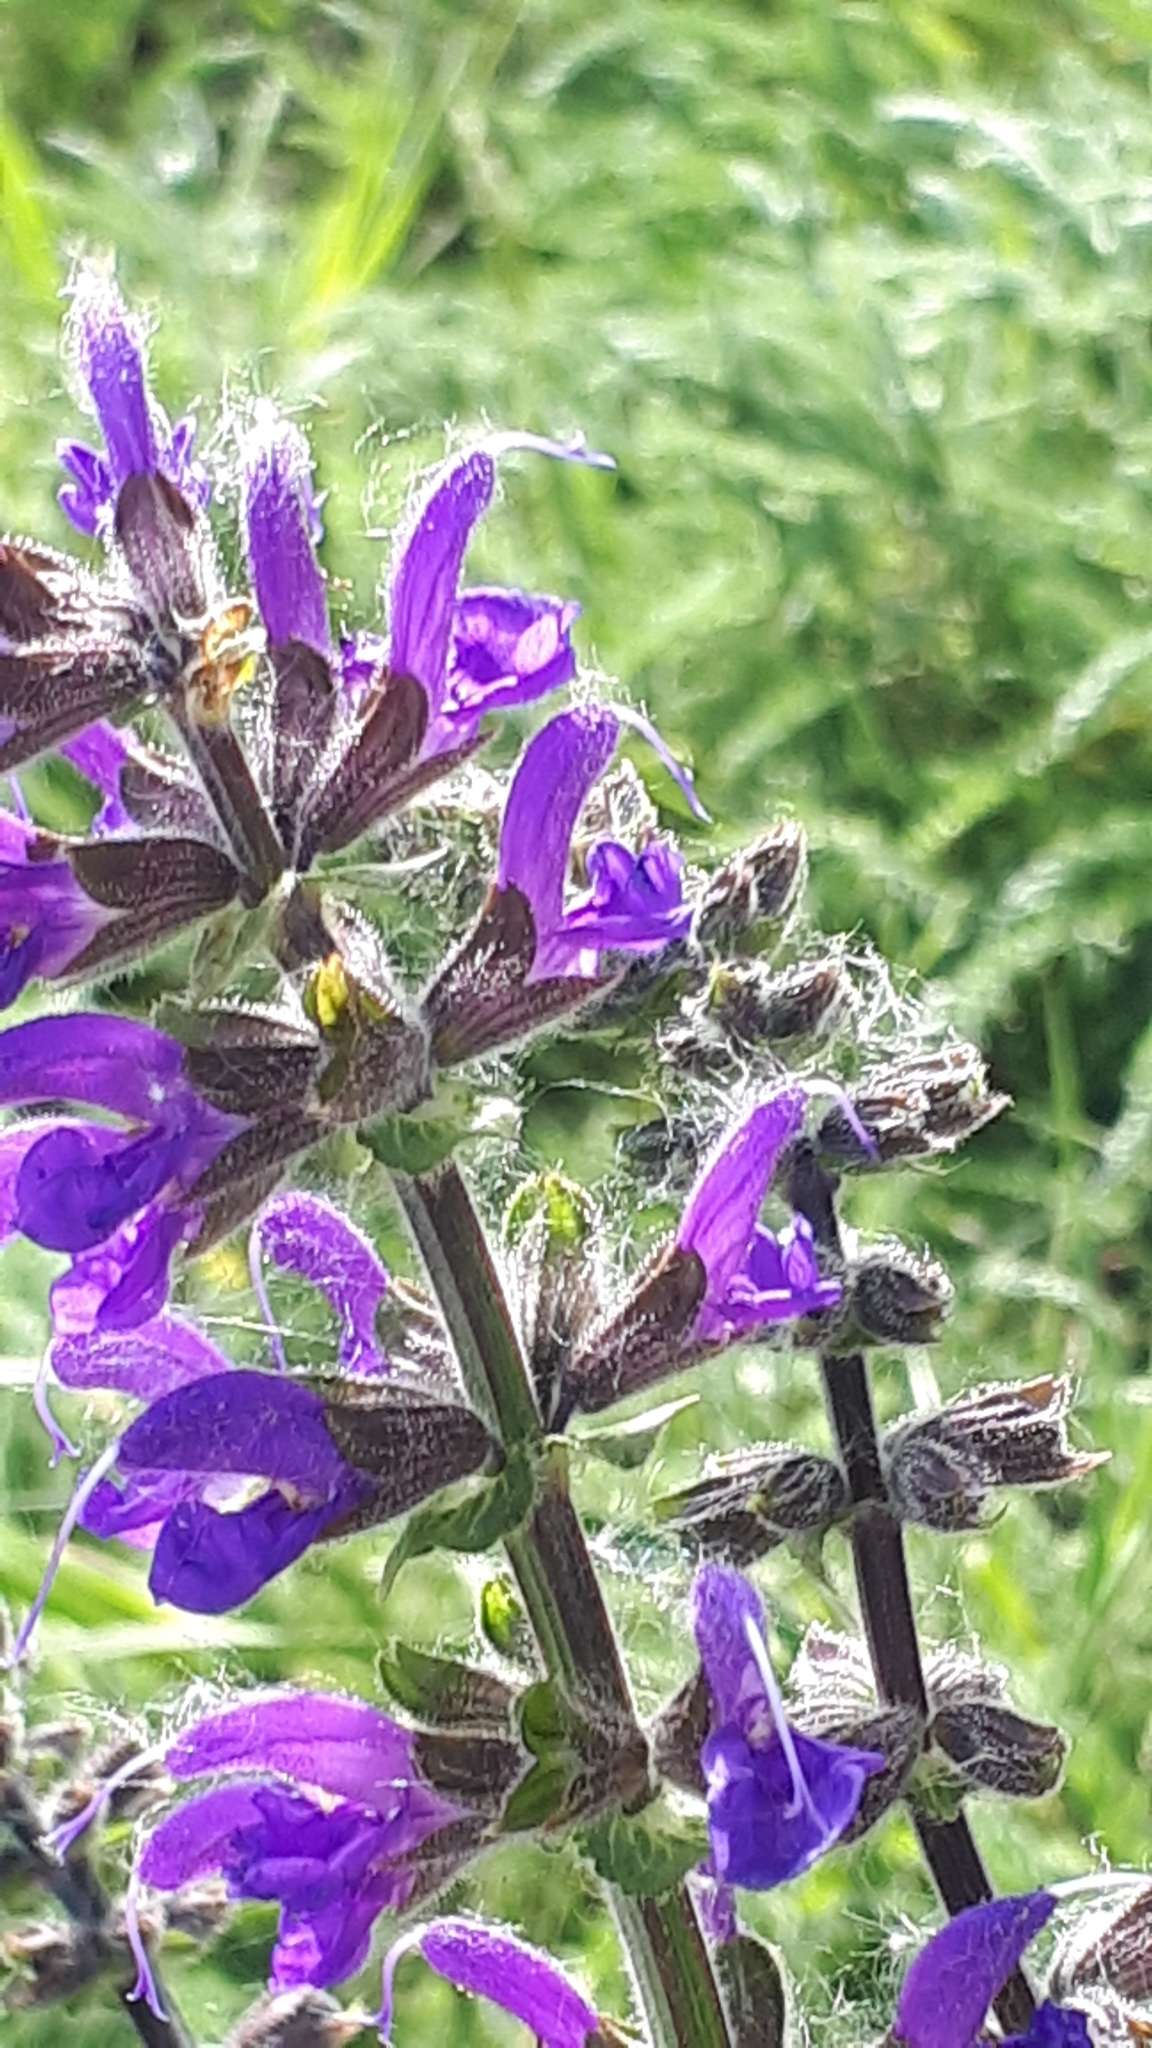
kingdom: Plantae
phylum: Tracheophyta
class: Magnoliopsida
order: Lamiales
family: Lamiaceae
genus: Salvia
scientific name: Salvia pratensis
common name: Meadow sage
